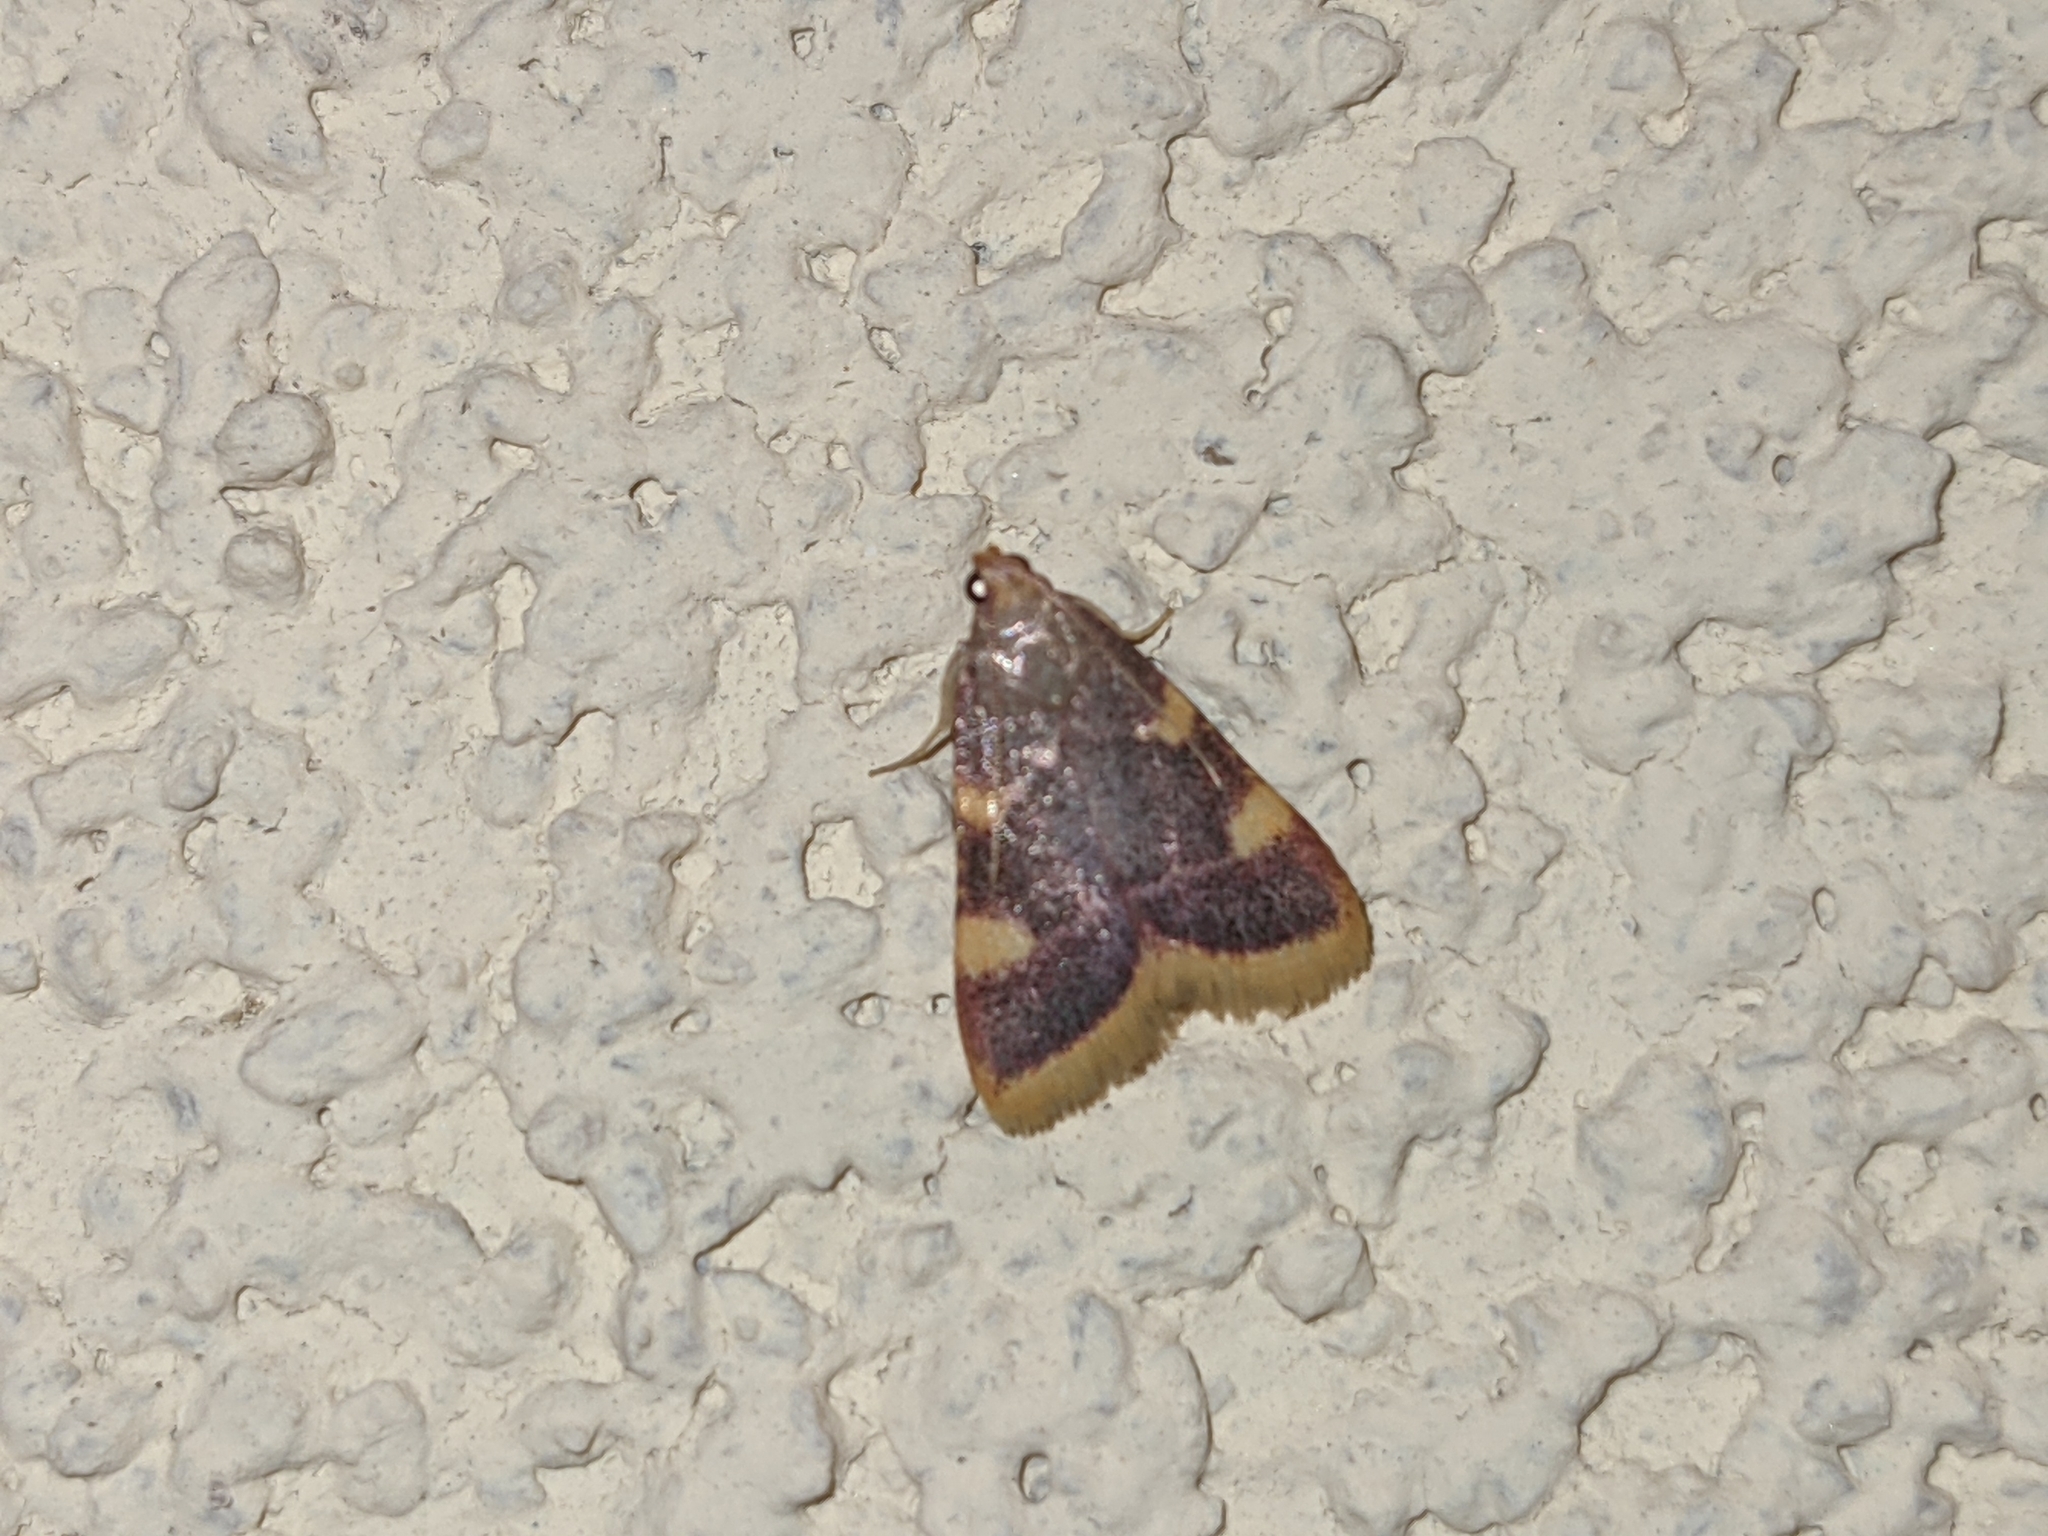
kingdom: Animalia
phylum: Arthropoda
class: Insecta
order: Lepidoptera
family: Pyralidae
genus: Hypsopygia
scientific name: Hypsopygia costalis
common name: Gold triangle
